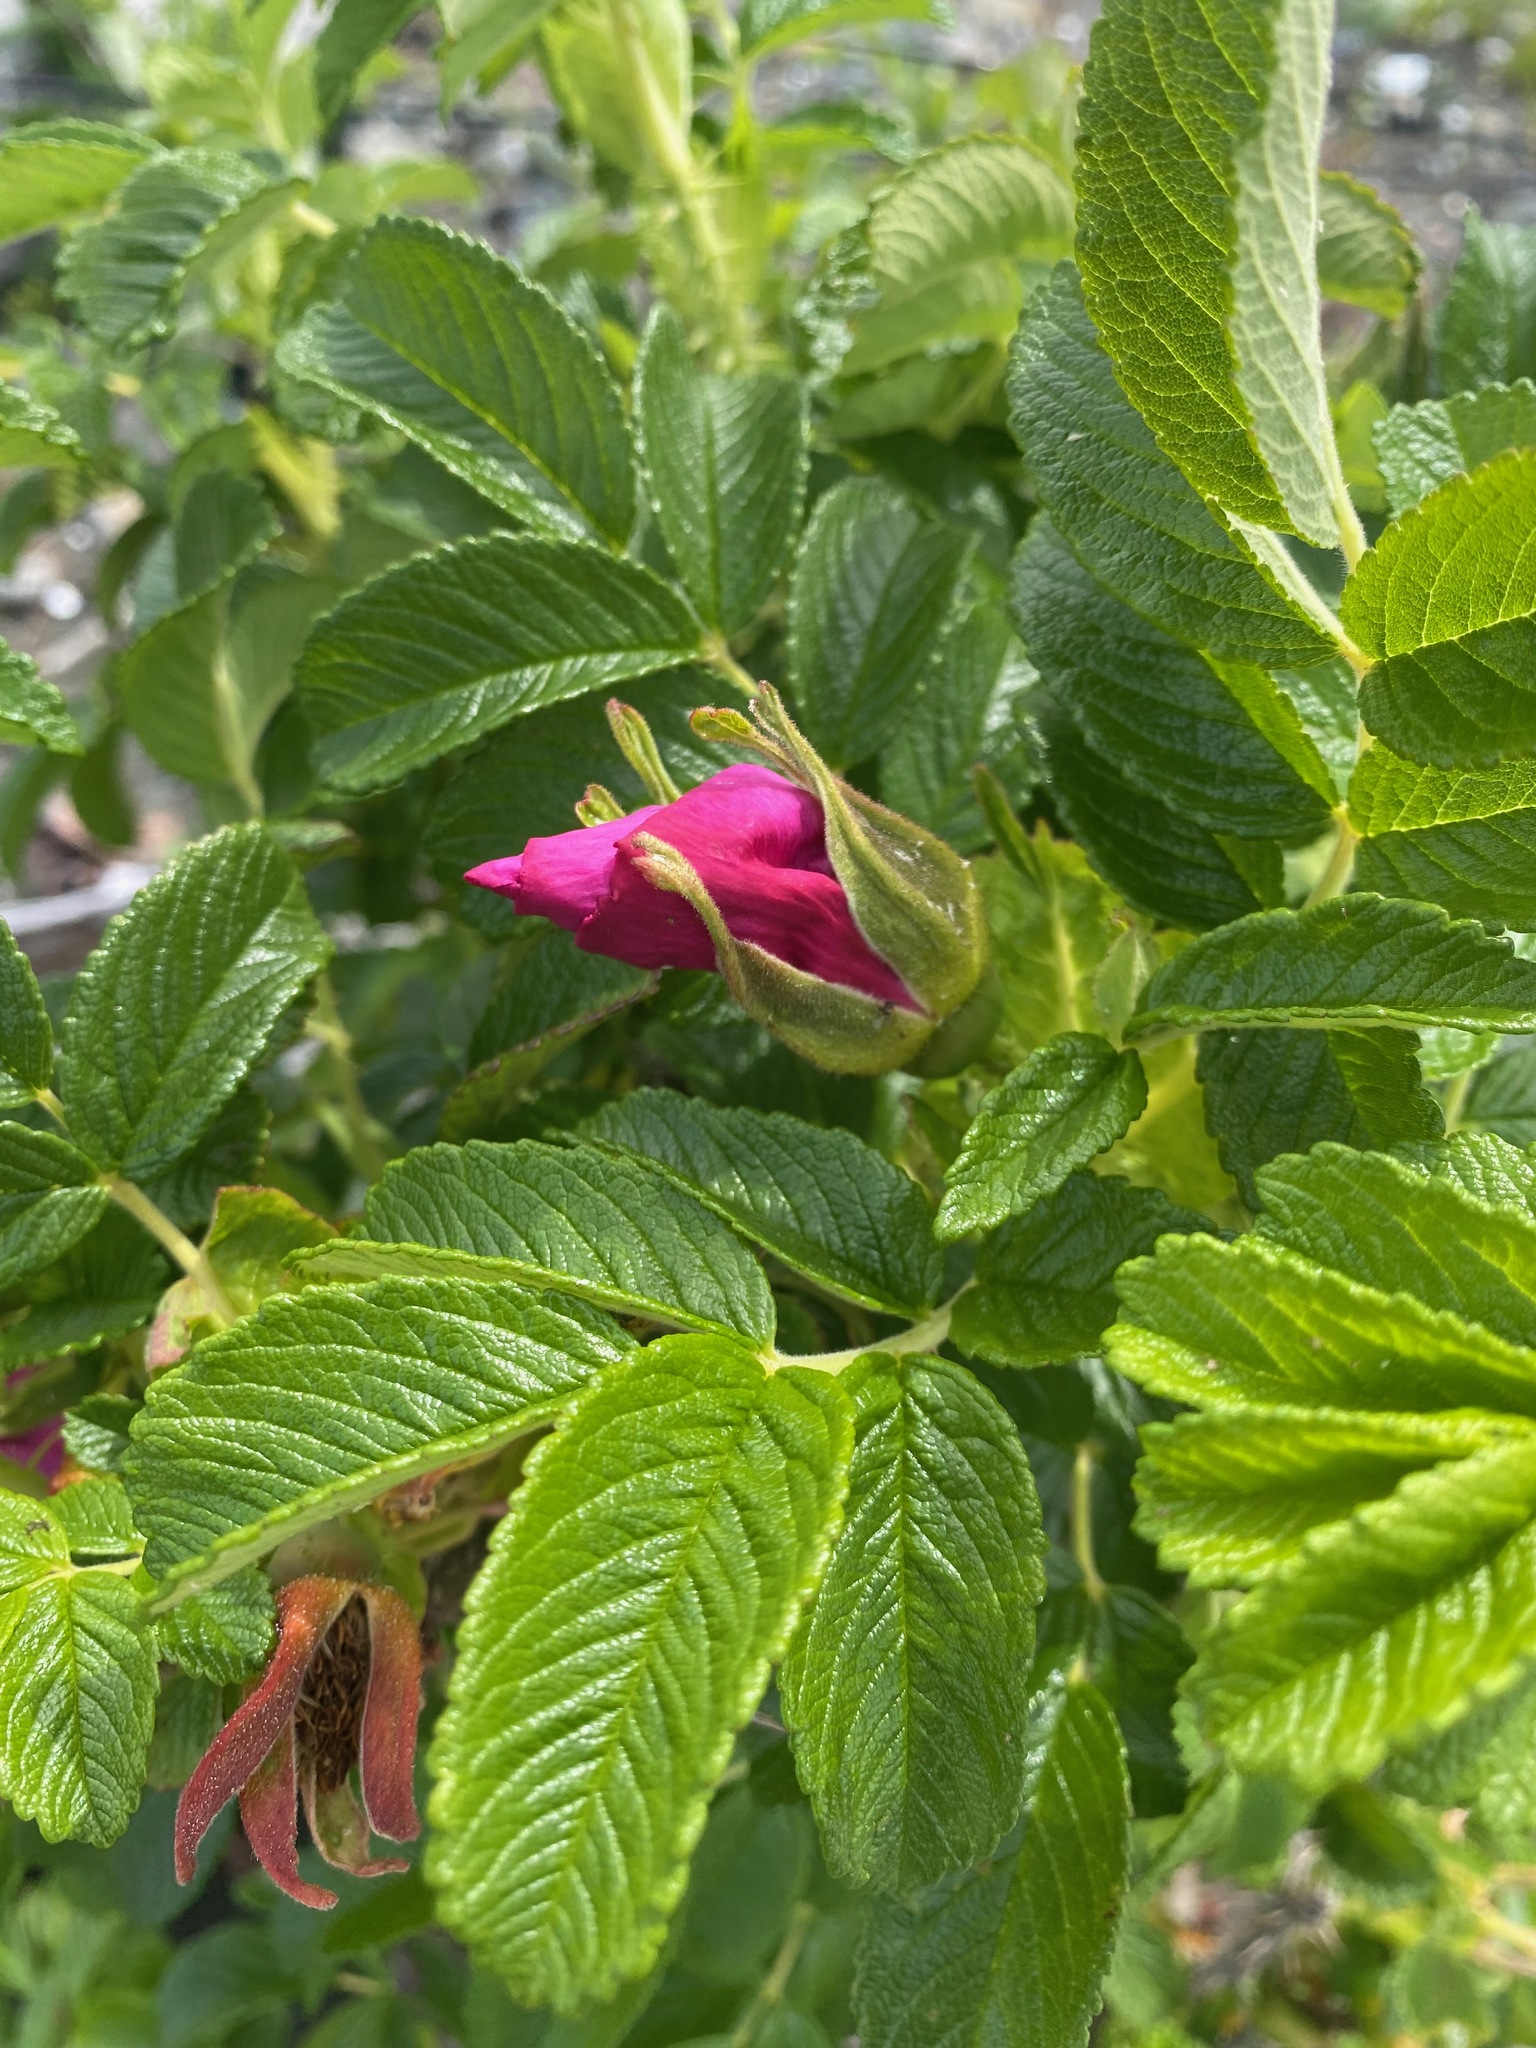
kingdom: Plantae
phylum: Tracheophyta
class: Magnoliopsida
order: Rosales
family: Rosaceae
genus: Rosa
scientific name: Rosa rugosa
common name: Japanese rose
